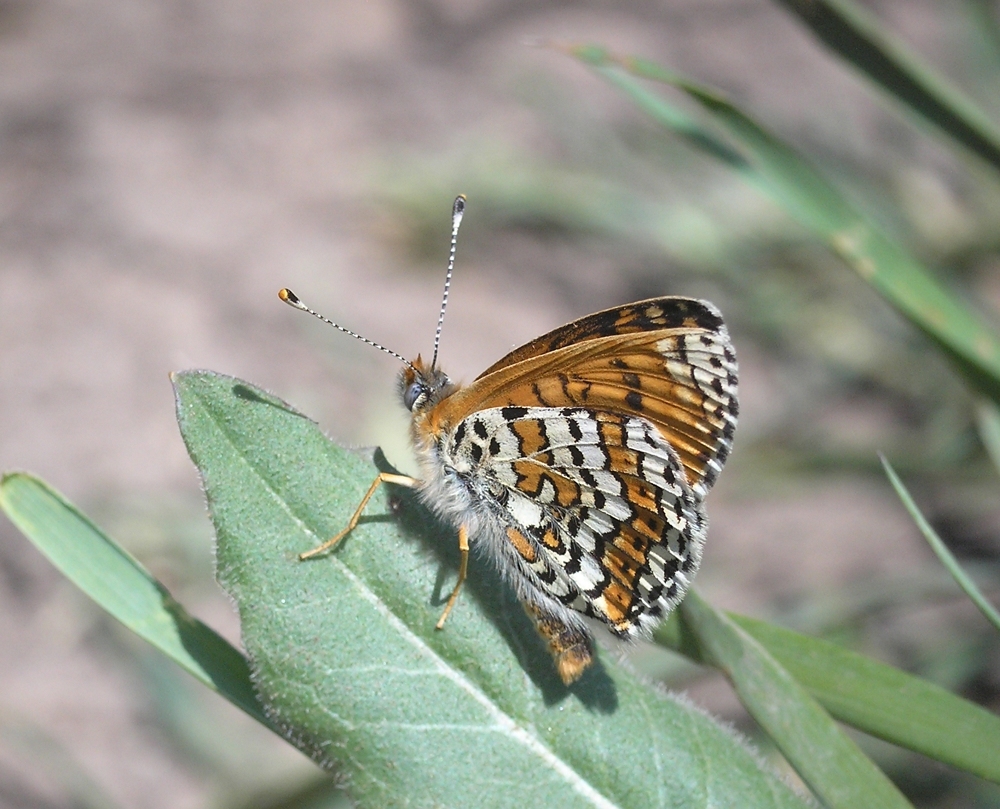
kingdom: Animalia
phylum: Arthropoda
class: Insecta
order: Lepidoptera
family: Nymphalidae
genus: Melitaea
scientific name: Melitaea cinxia
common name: Glanville fritillary
